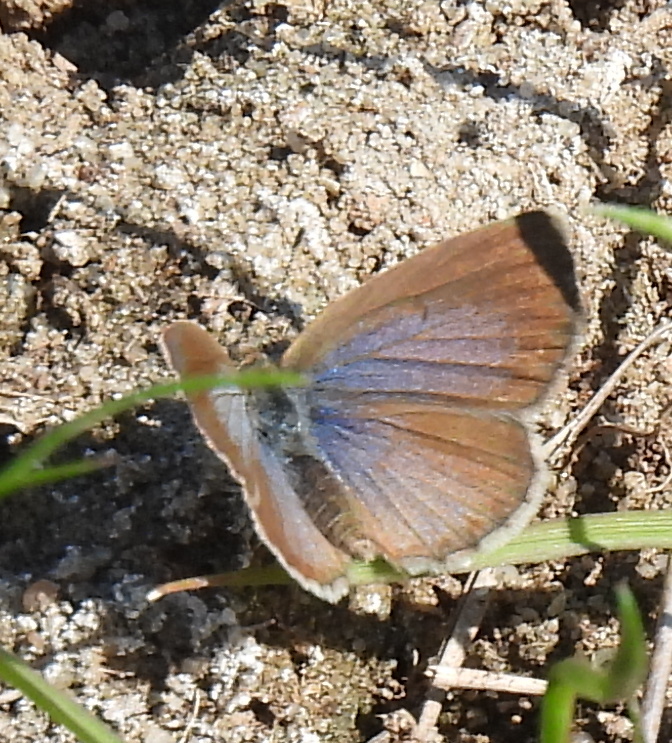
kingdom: Animalia
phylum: Arthropoda
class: Insecta
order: Lepidoptera
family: Lycaenidae
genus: Zizeeria
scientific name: Zizeeria knysna
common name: African grass blue
